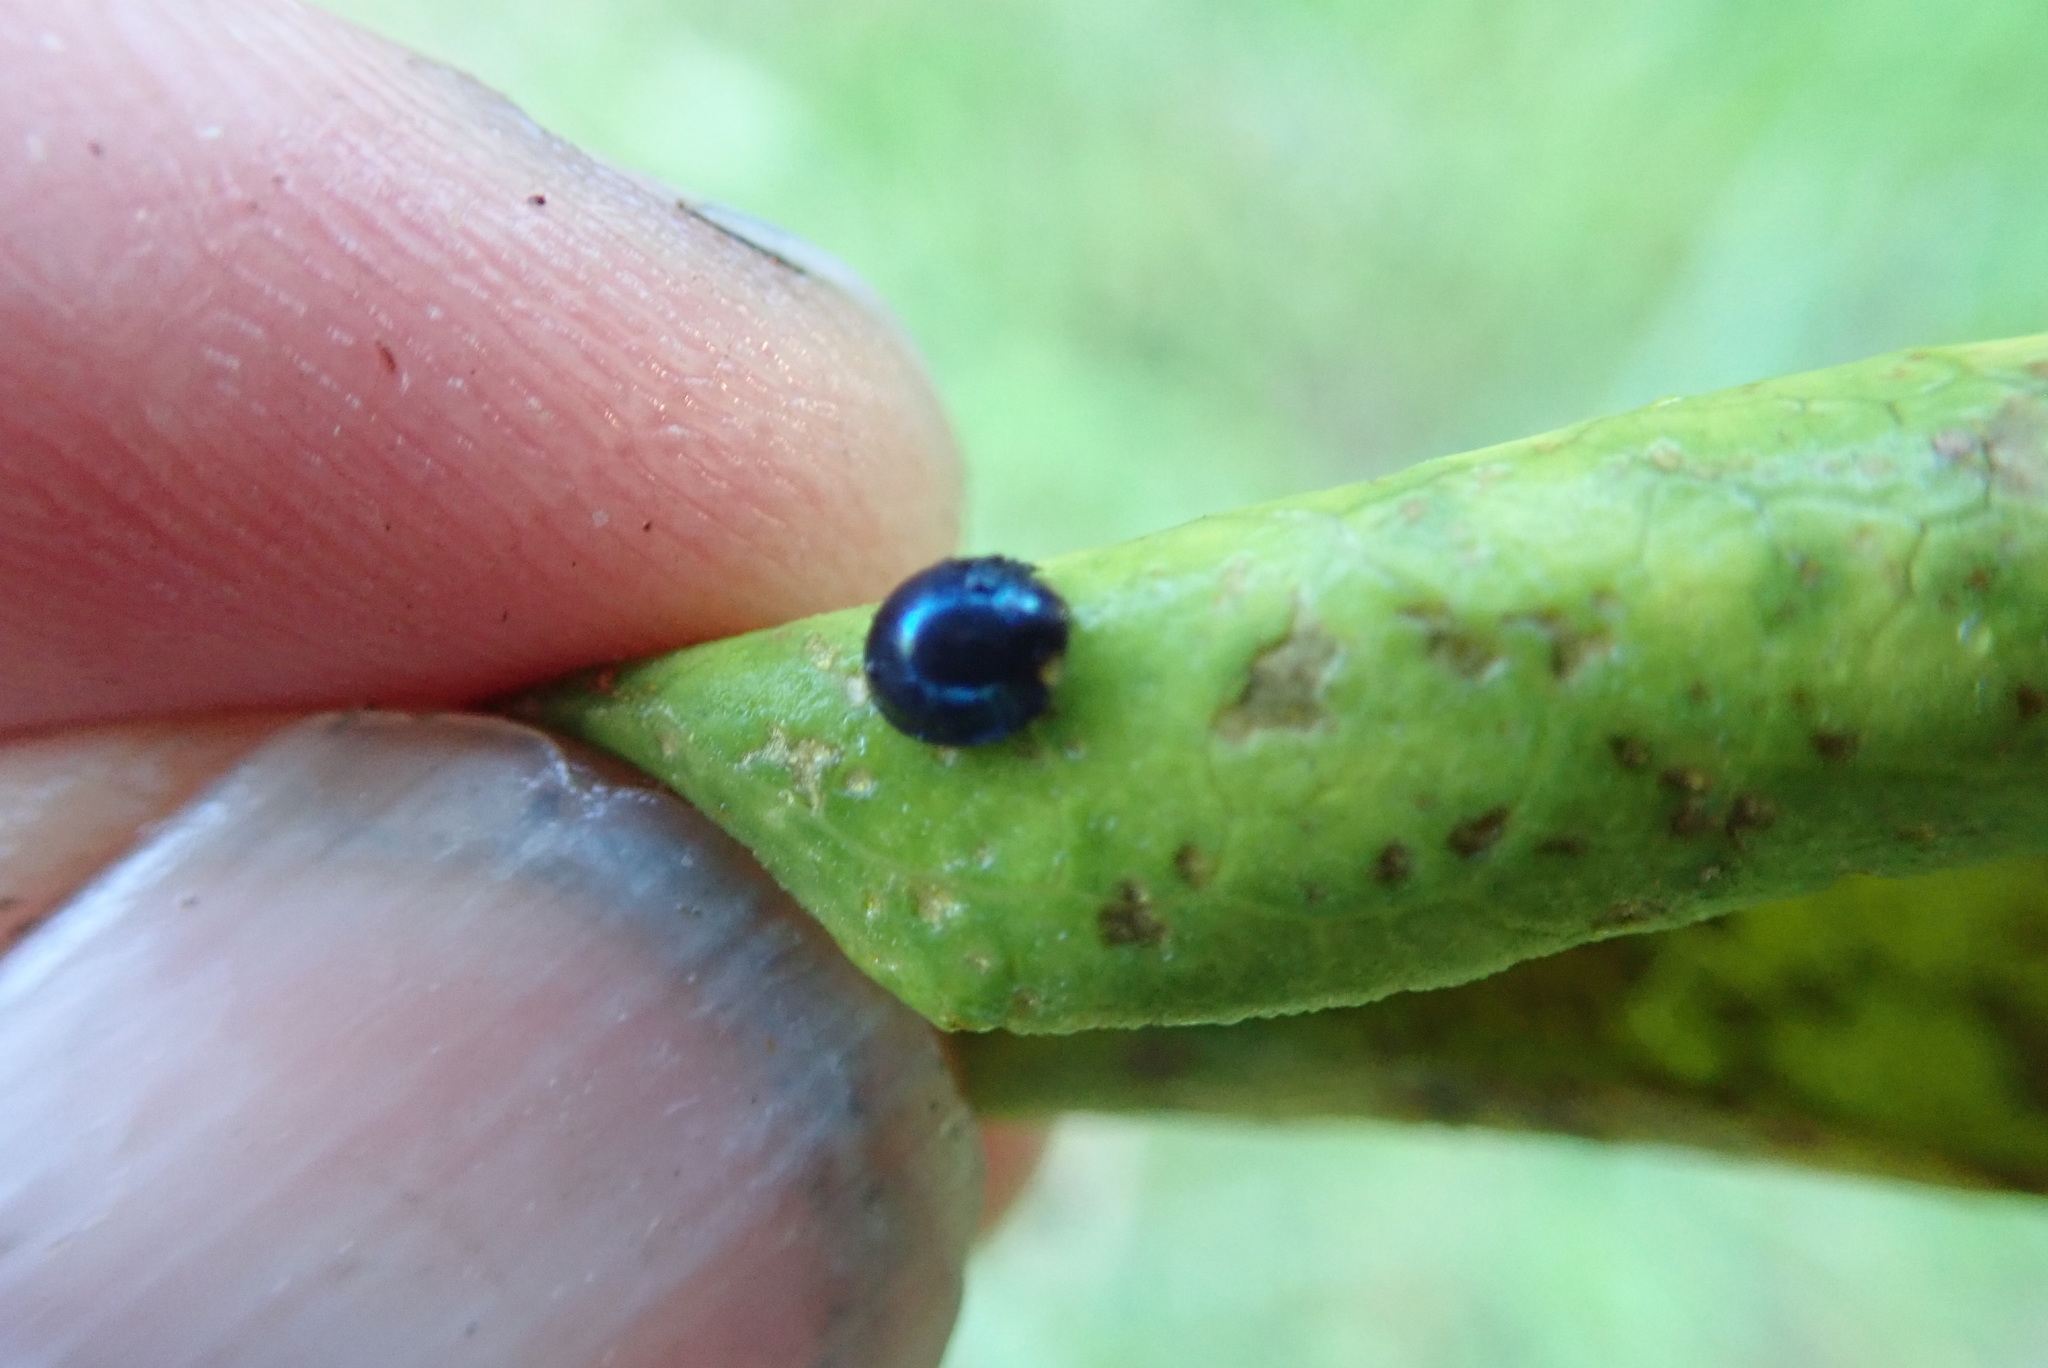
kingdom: Animalia
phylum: Arthropoda
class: Insecta
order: Coleoptera
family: Coccinellidae
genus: Halmus
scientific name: Halmus chalybeus
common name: Steel blue ladybird beetle
